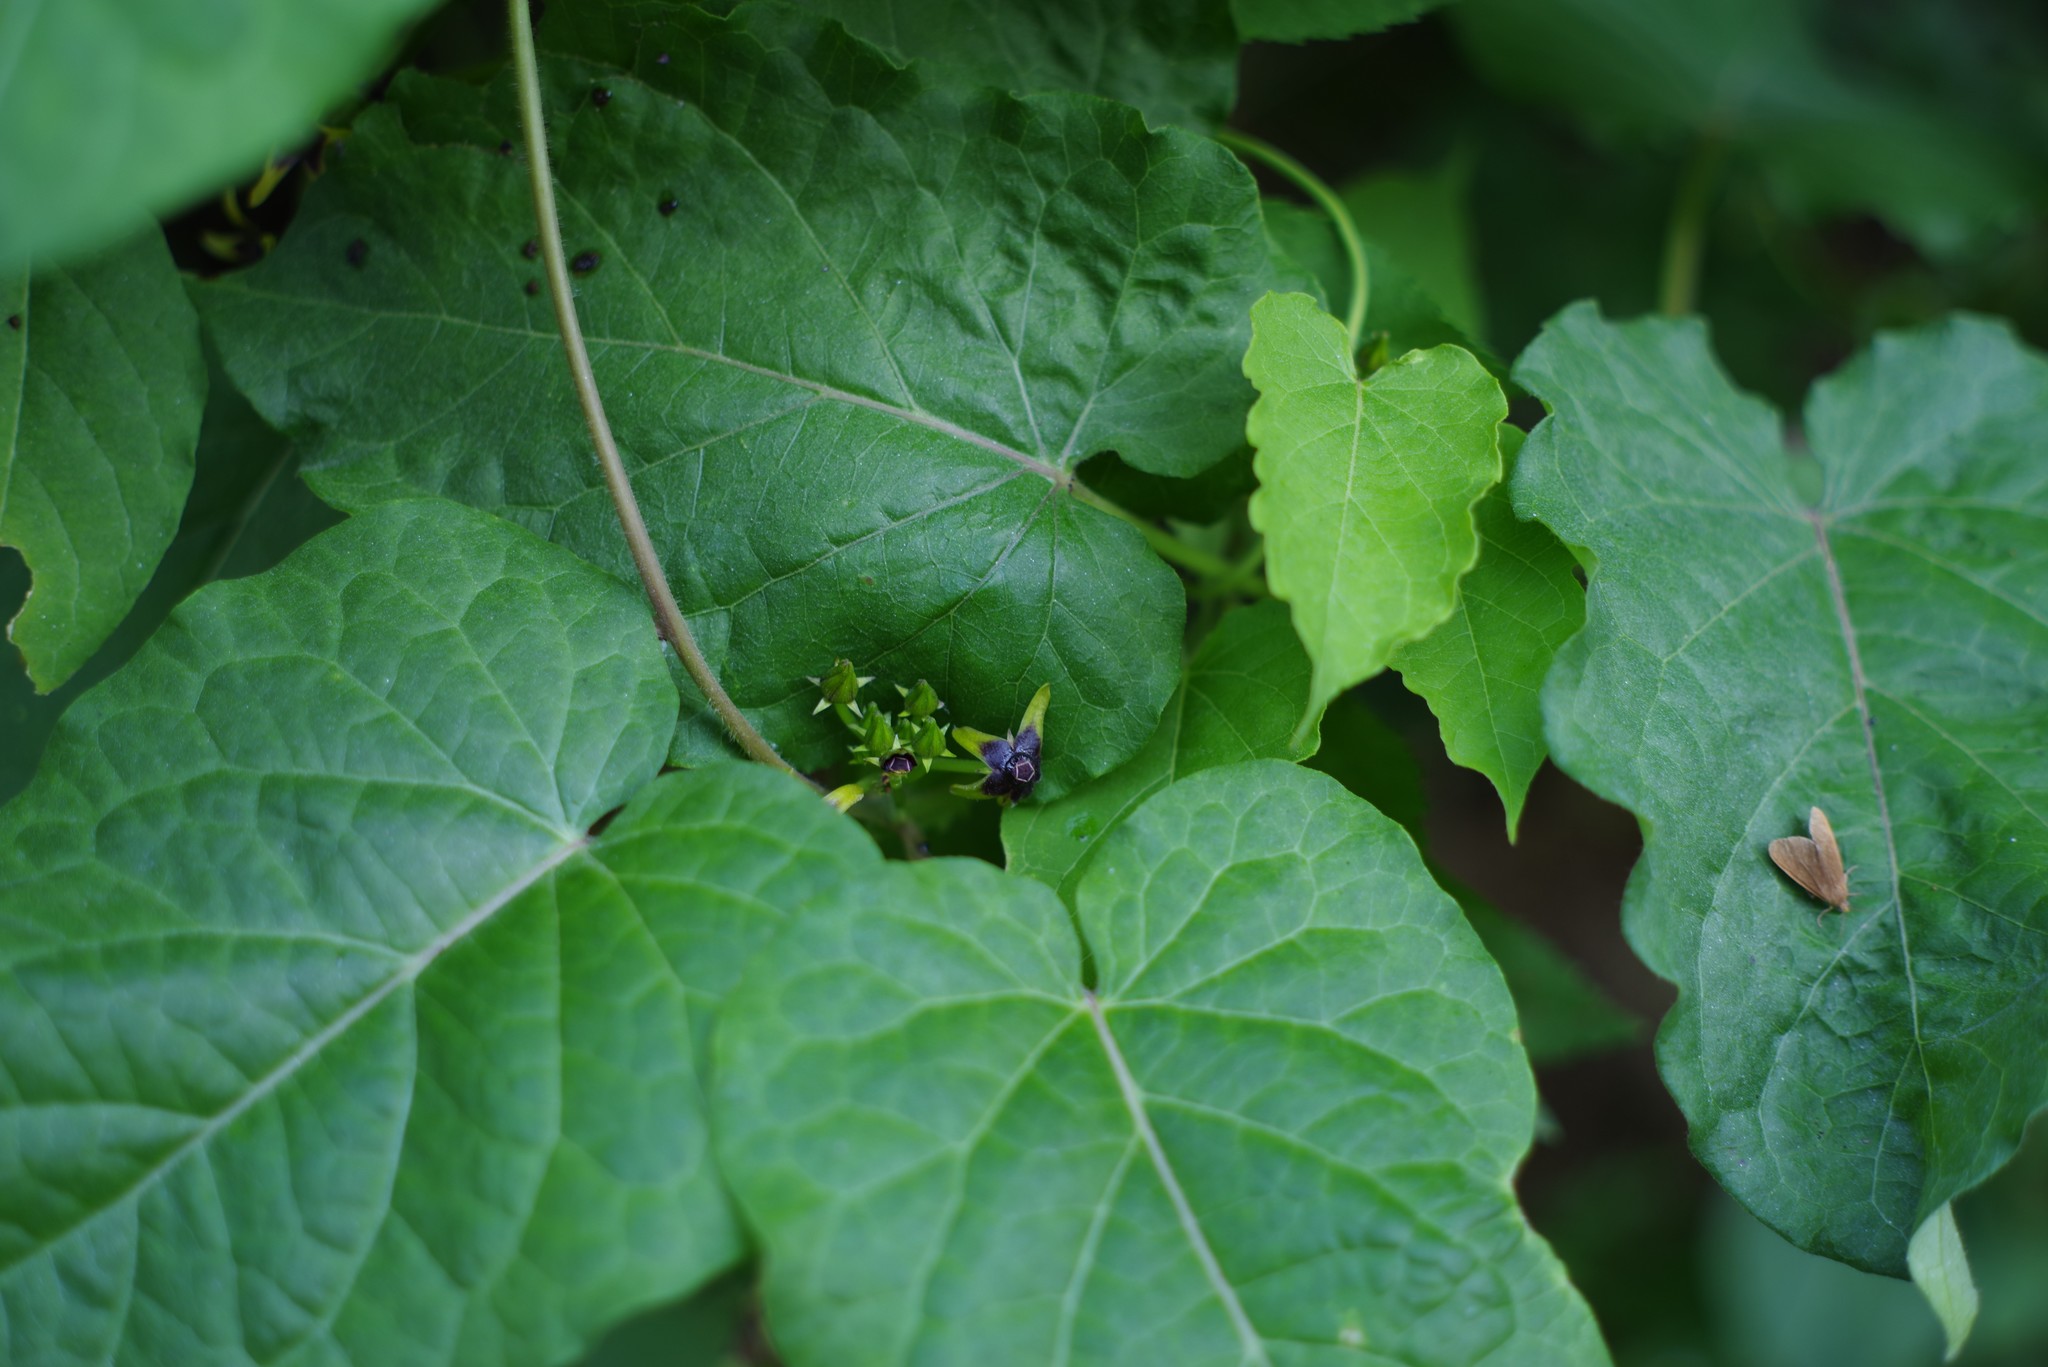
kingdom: Plantae
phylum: Tracheophyta
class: Magnoliopsida
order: Gentianales
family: Apocynaceae
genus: Gonolobus
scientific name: Gonolobus suberosus
